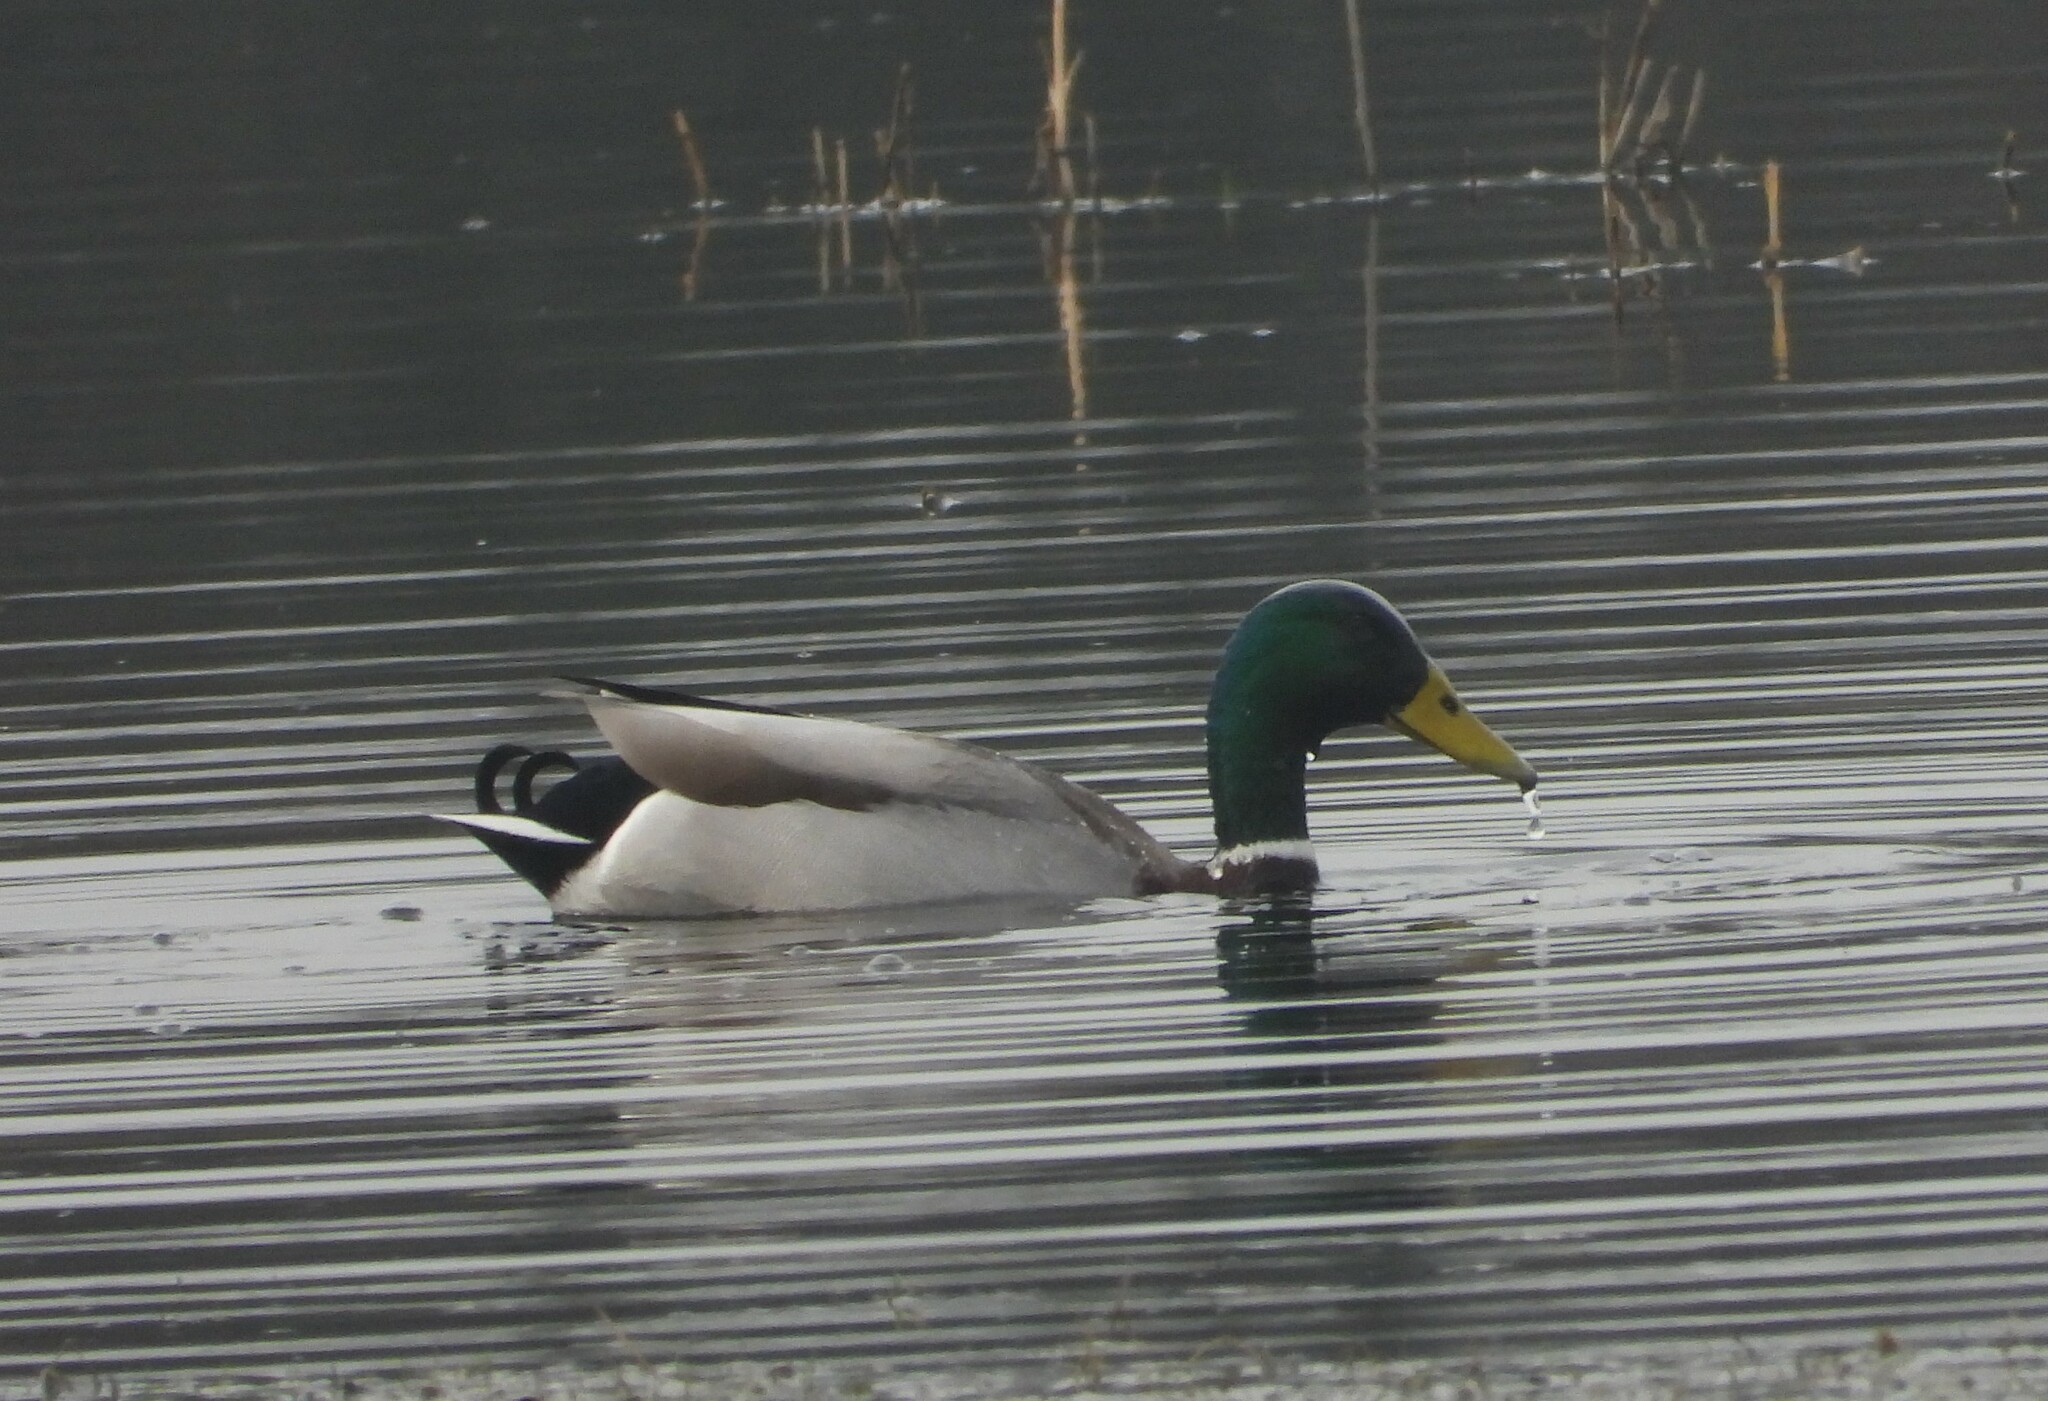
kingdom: Animalia
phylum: Chordata
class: Aves
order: Anseriformes
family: Anatidae
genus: Anas
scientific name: Anas platyrhynchos
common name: Mallard
